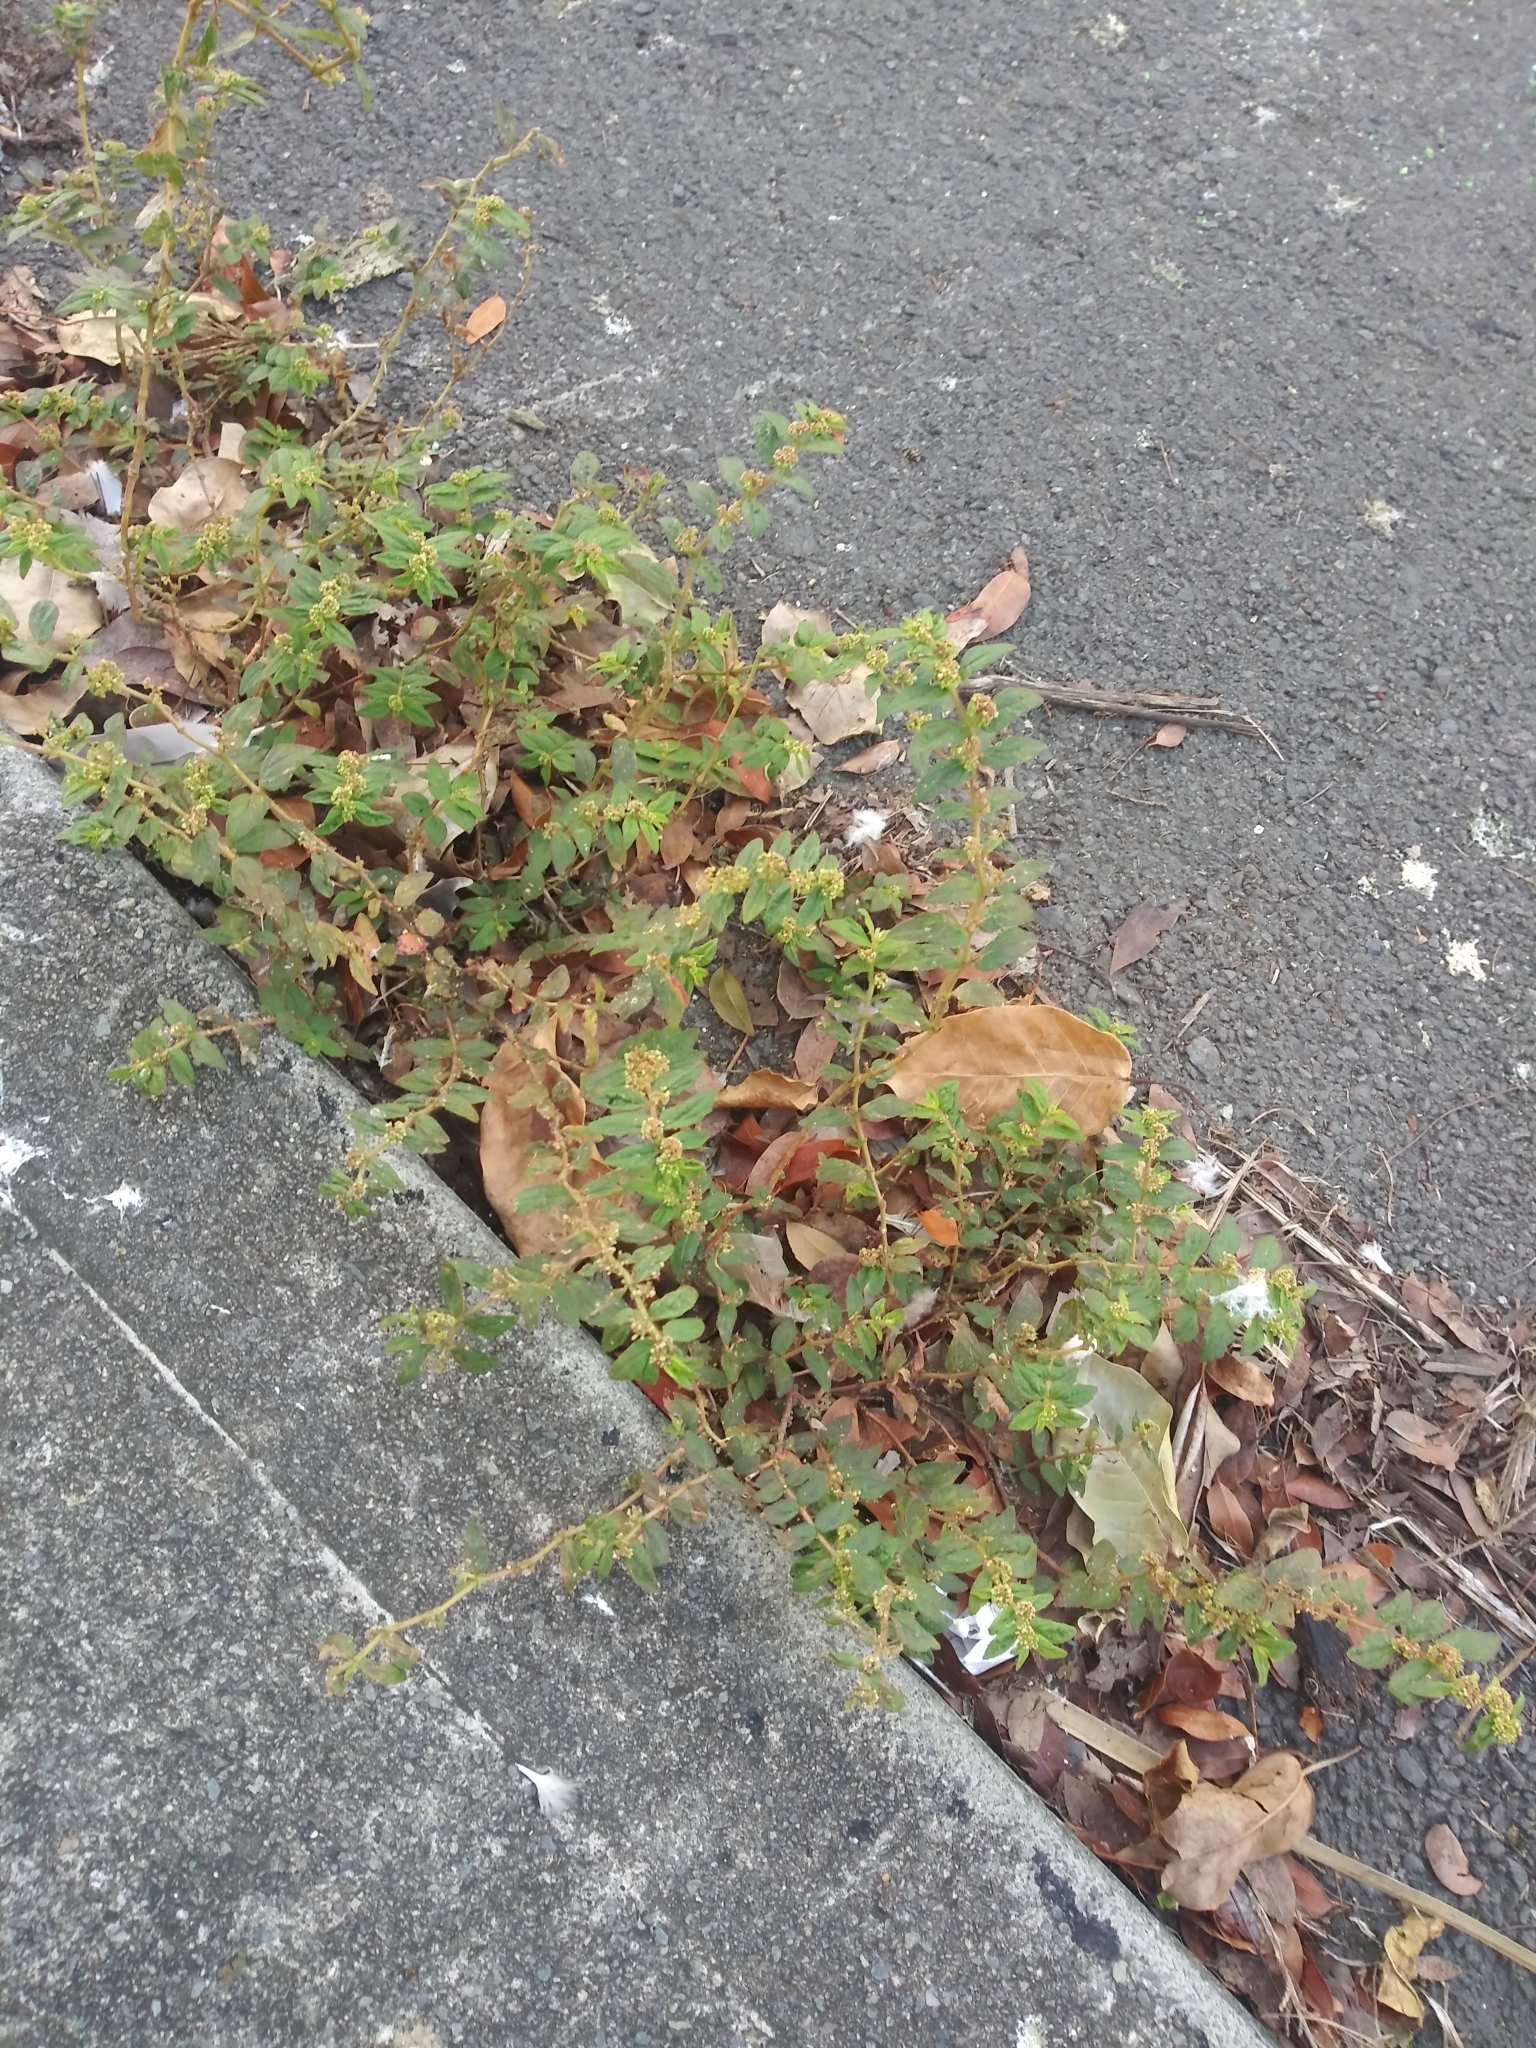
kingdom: Plantae
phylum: Tracheophyta
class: Magnoliopsida
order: Malpighiales
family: Euphorbiaceae
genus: Euphorbia
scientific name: Euphorbia hirta
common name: Pillpod sandmat
